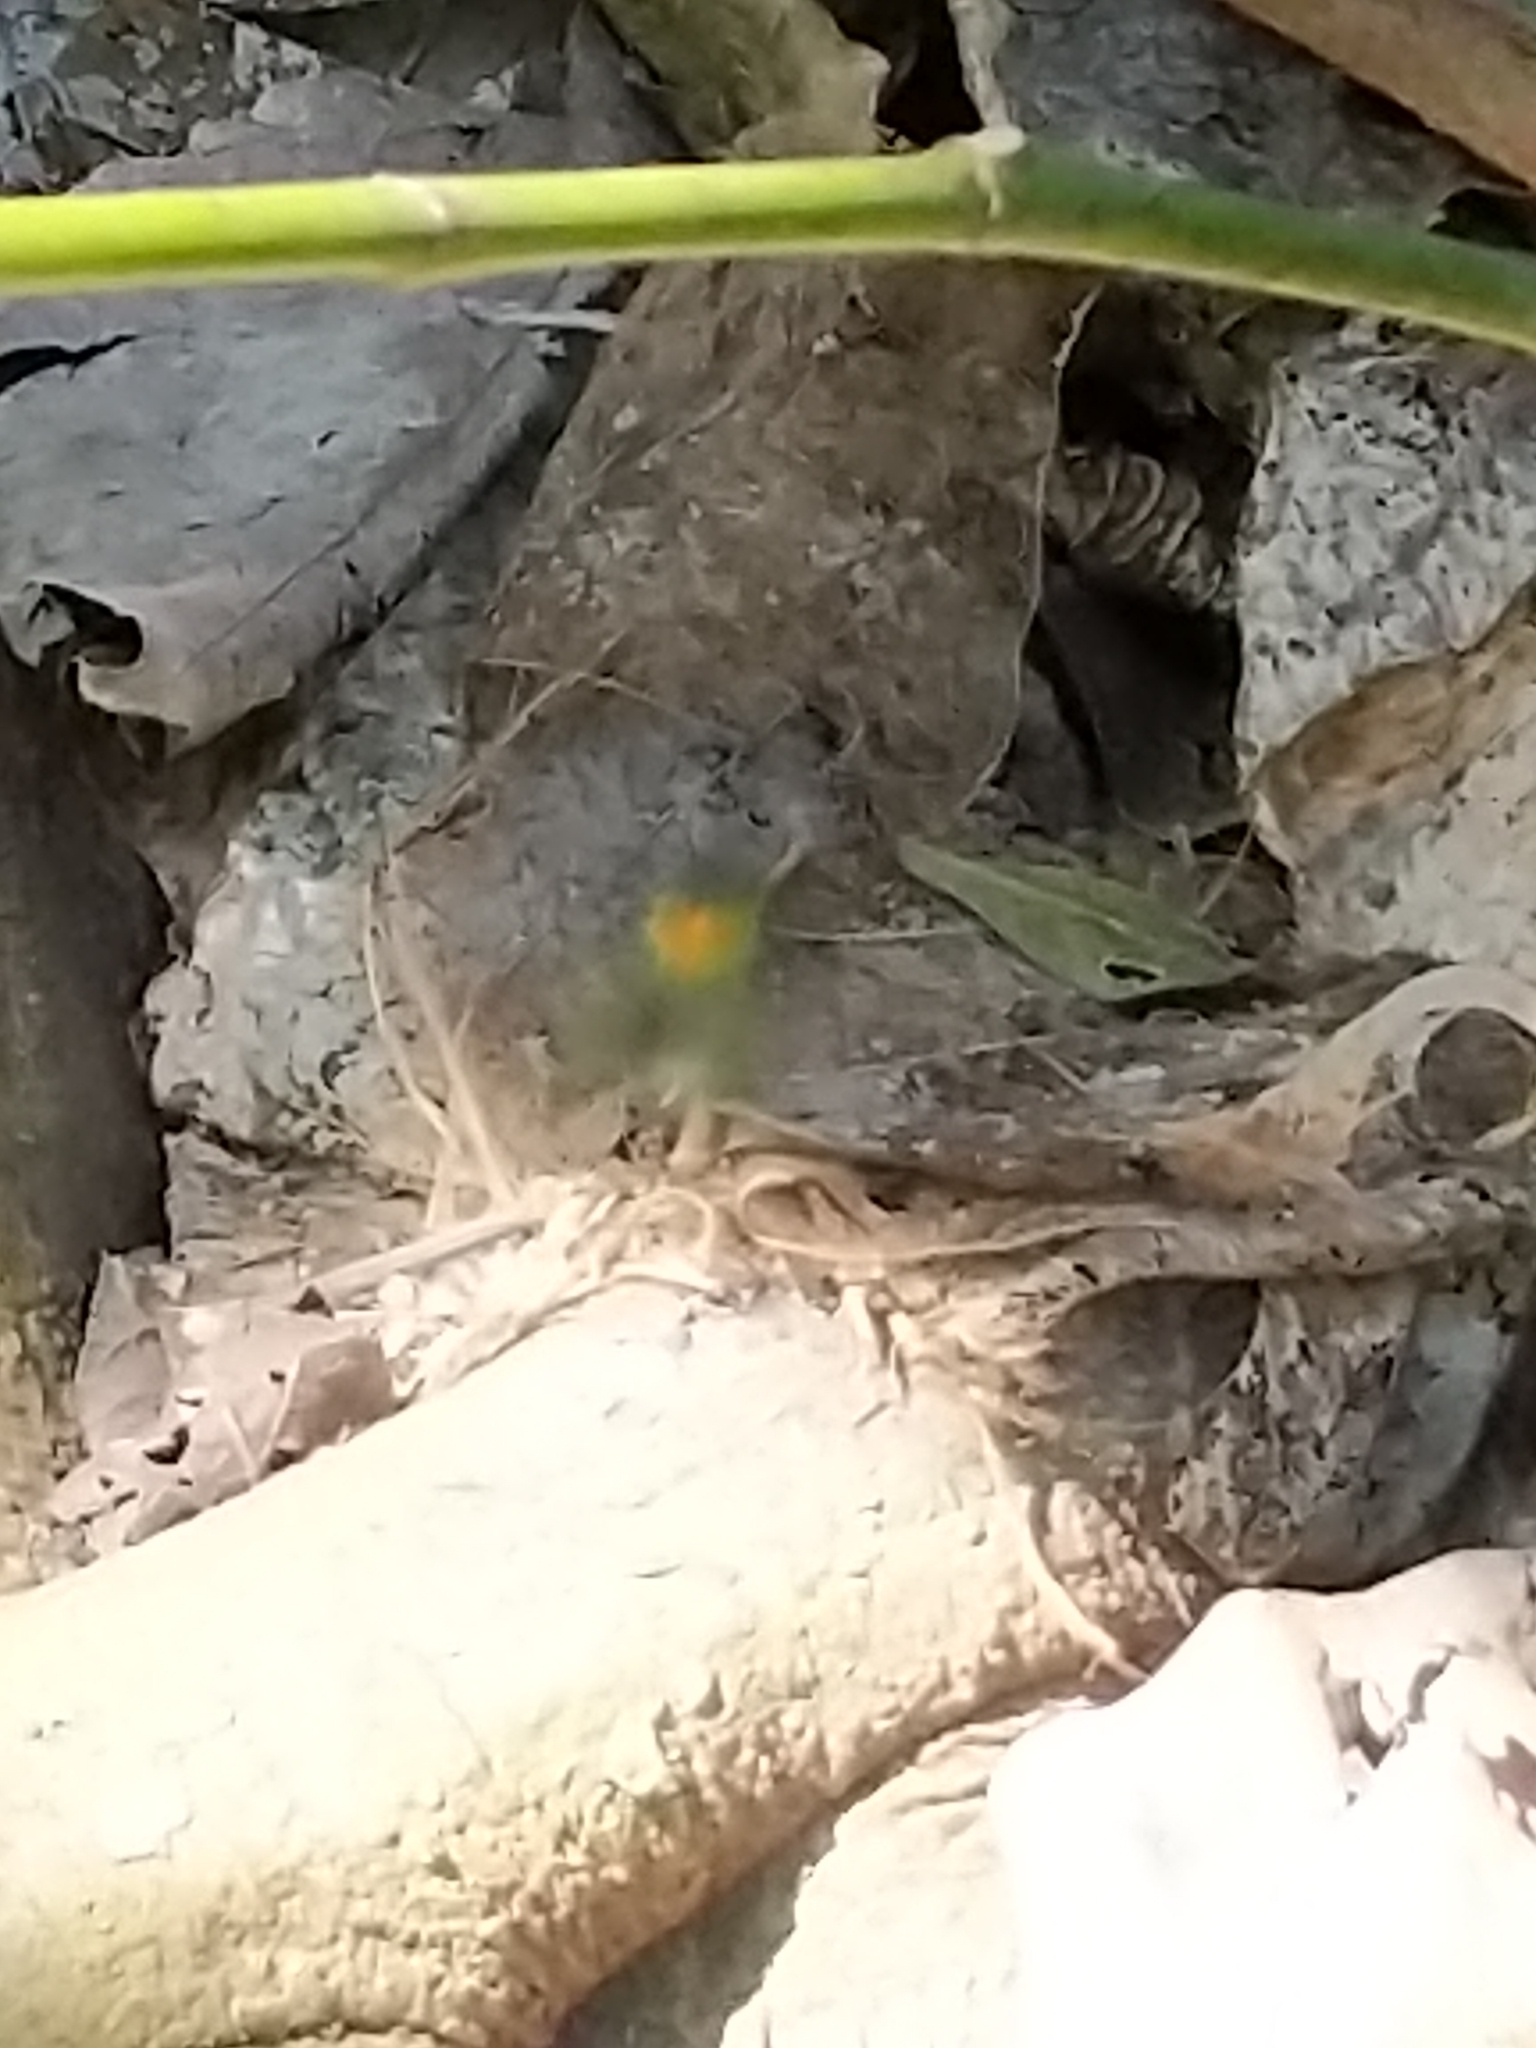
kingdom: Animalia
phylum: Arthropoda
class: Arachnida
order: Araneae
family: Tetragnathidae
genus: Leucauge
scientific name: Leucauge argyrobapta
